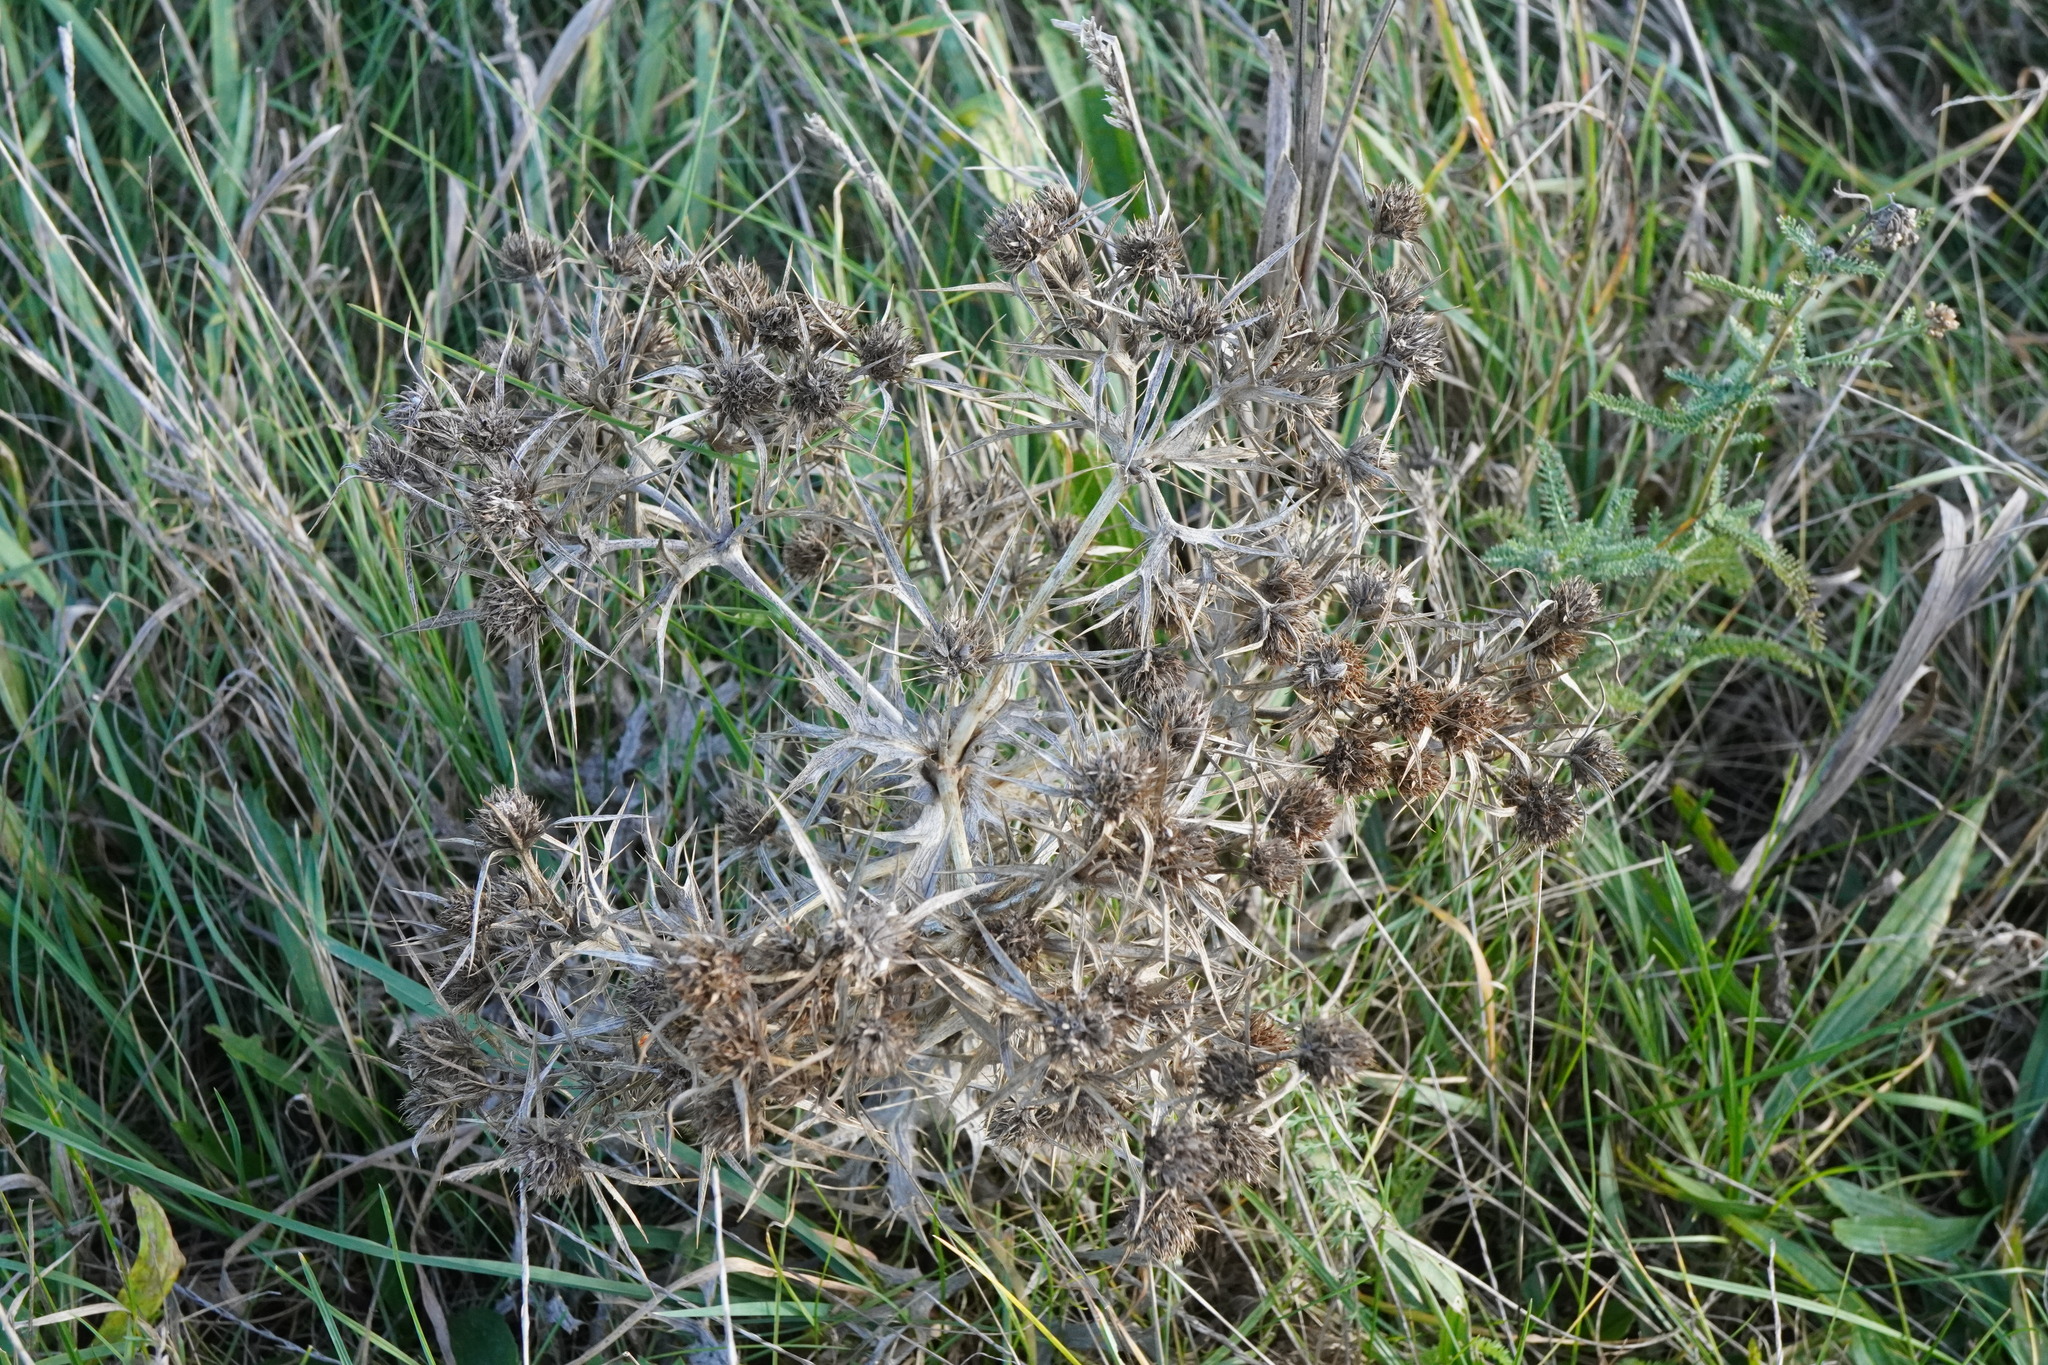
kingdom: Plantae
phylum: Tracheophyta
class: Magnoliopsida
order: Apiales
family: Apiaceae
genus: Eryngium
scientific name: Eryngium campestre
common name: Field eryngo
